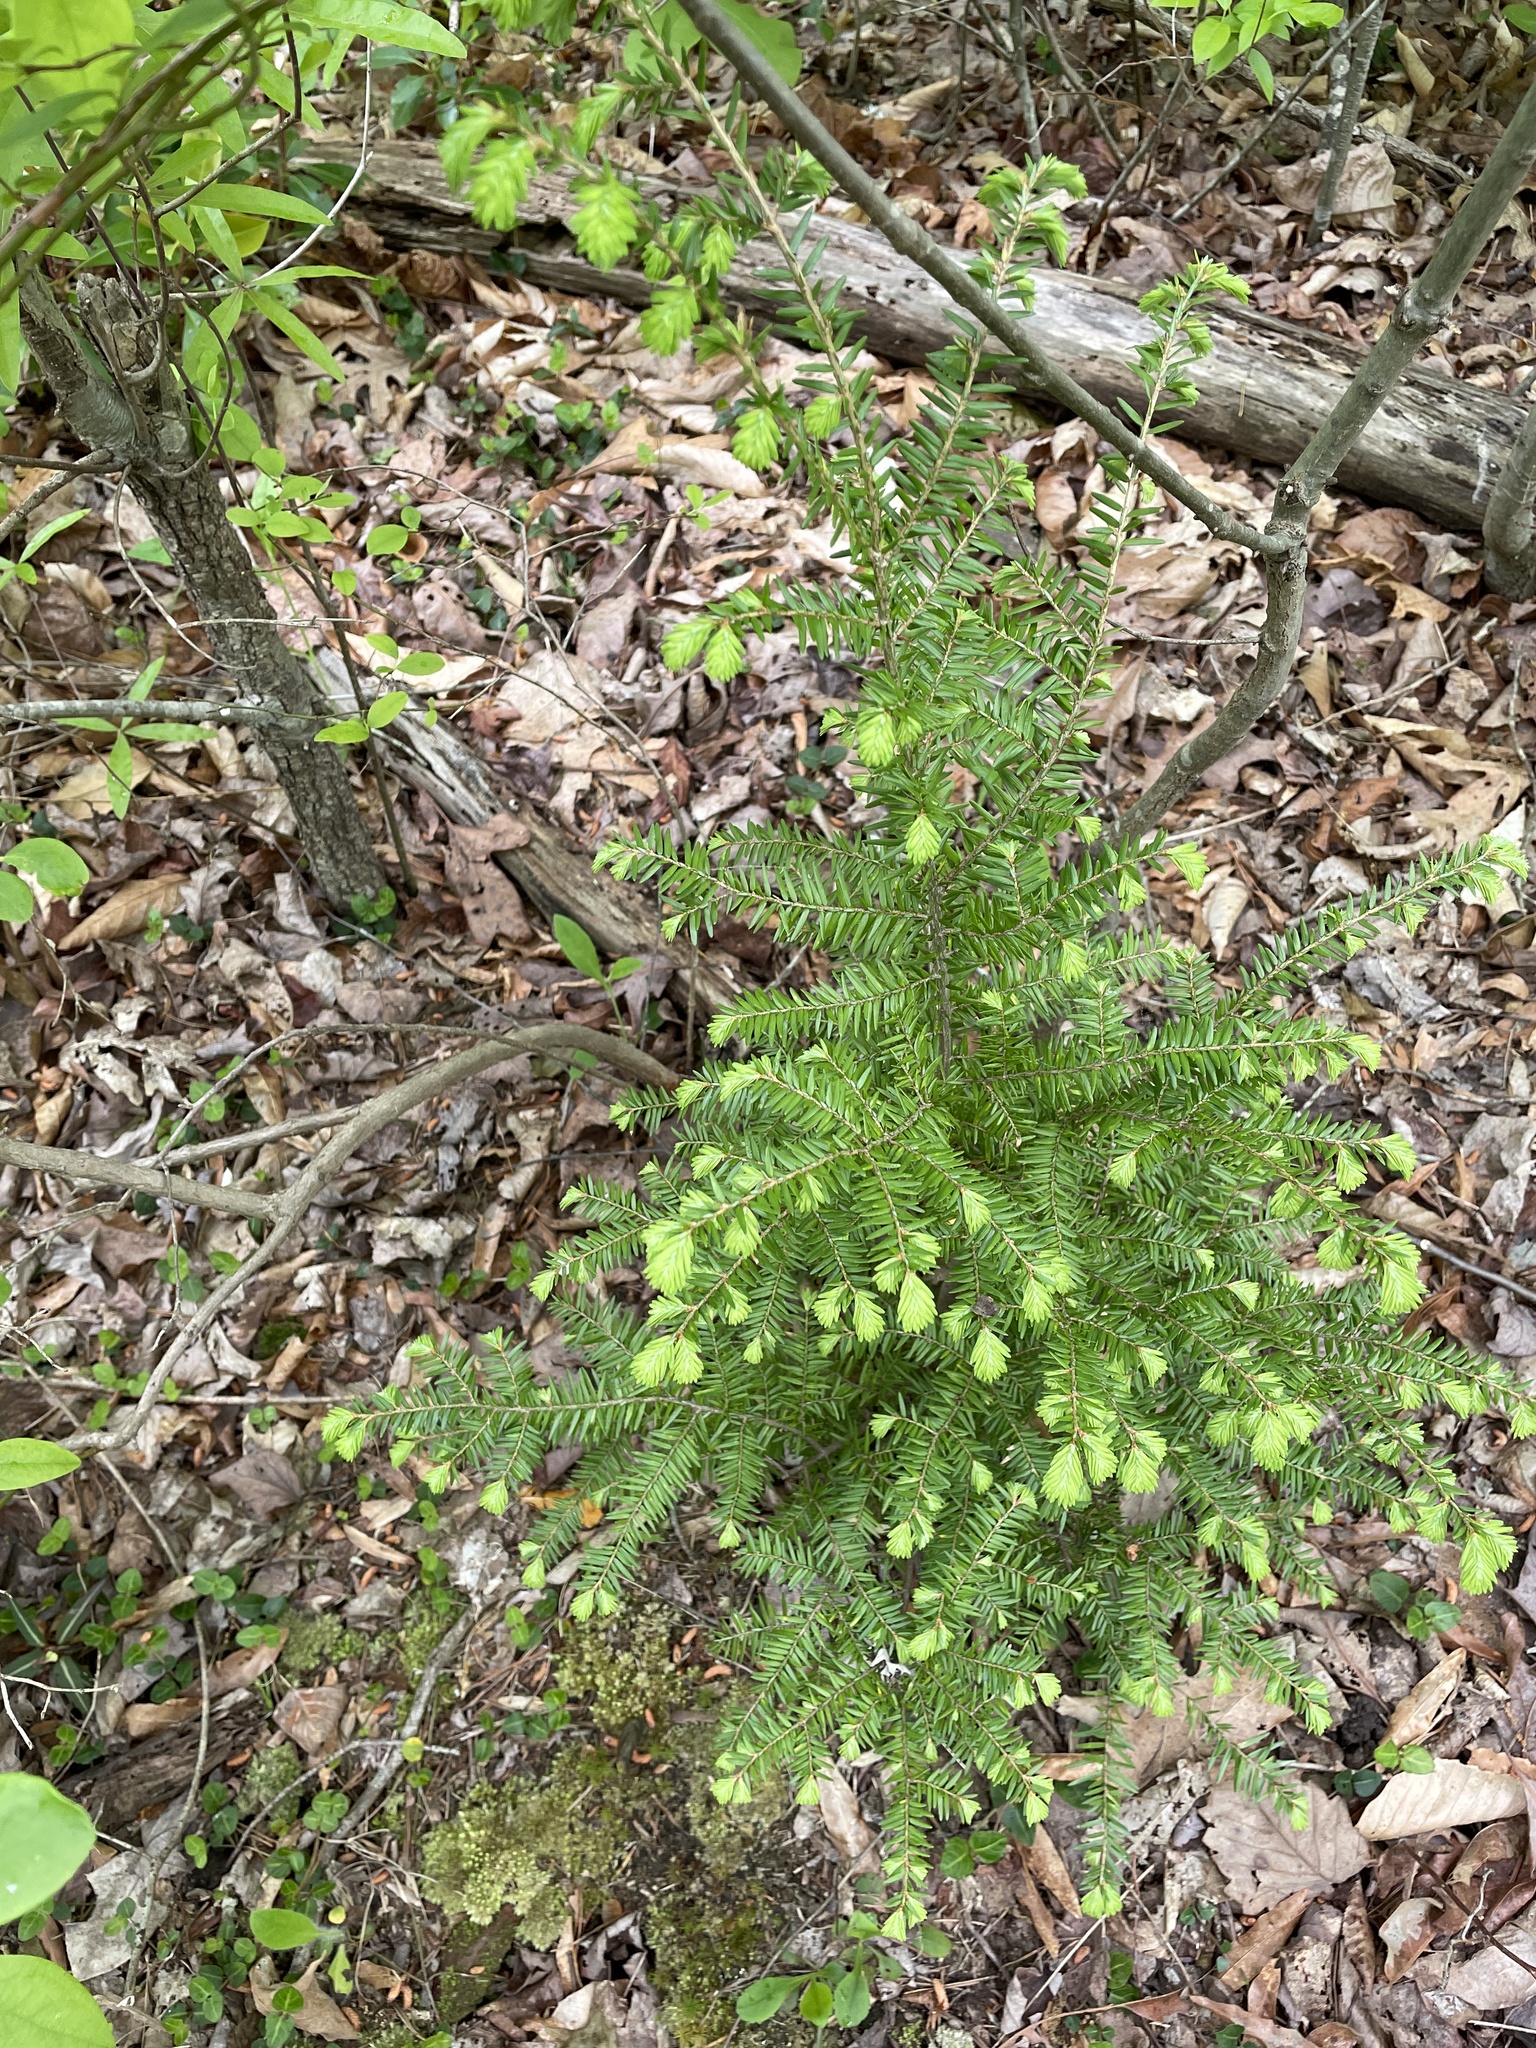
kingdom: Plantae
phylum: Tracheophyta
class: Pinopsida
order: Pinales
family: Pinaceae
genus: Tsuga
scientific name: Tsuga canadensis
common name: Eastern hemlock
